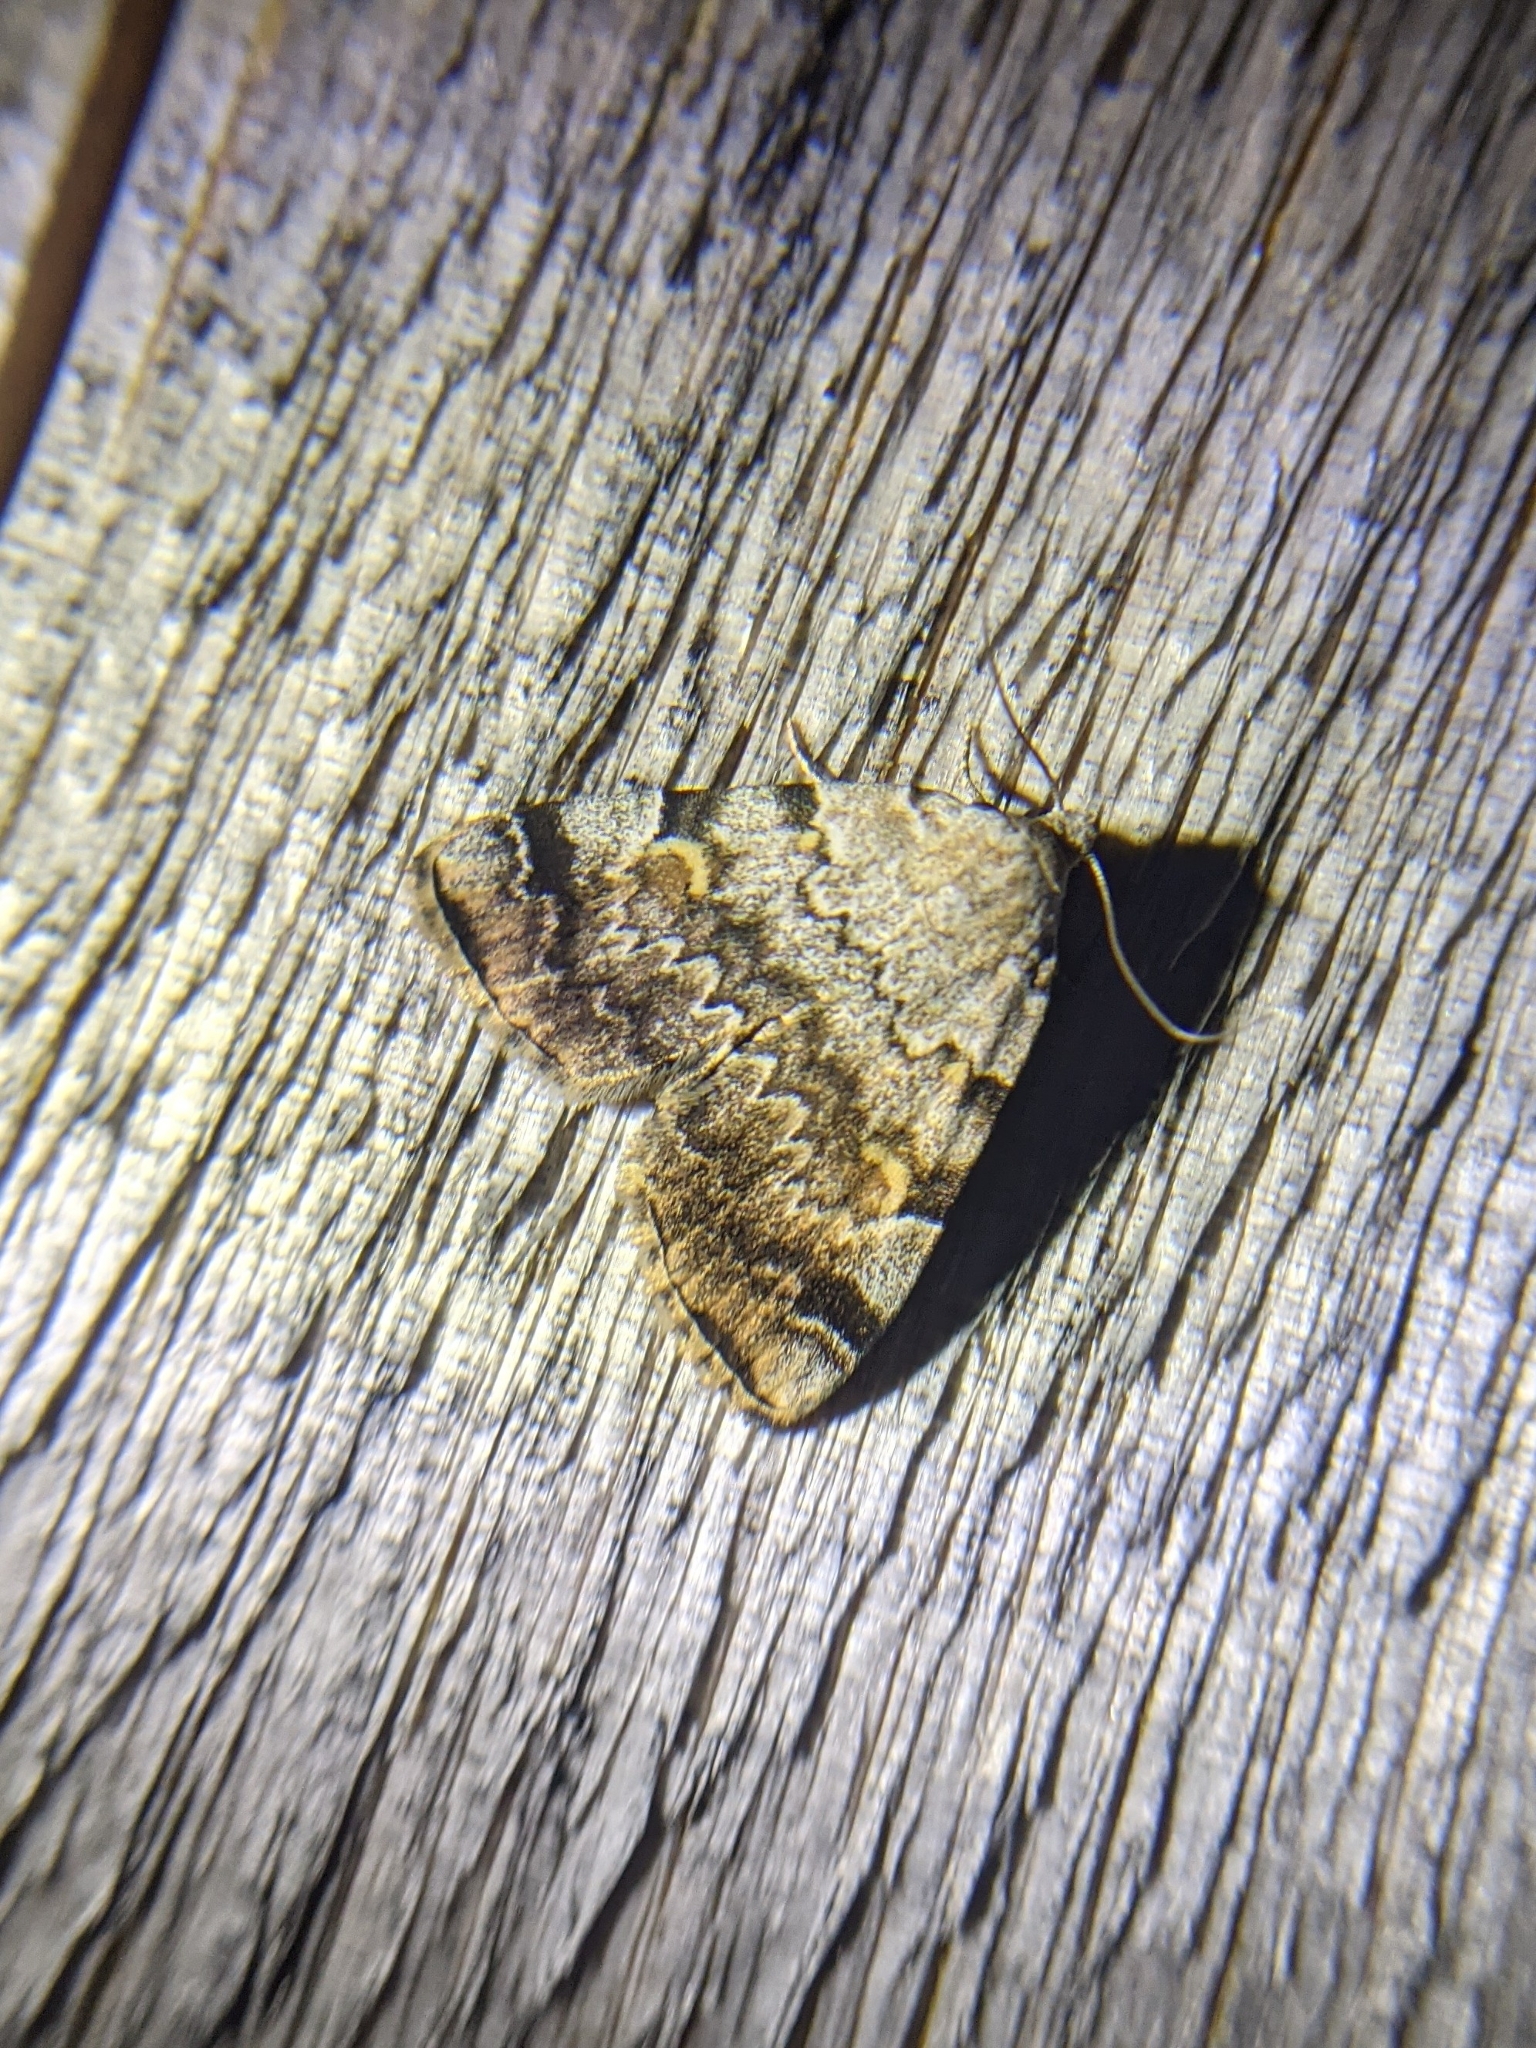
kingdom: Animalia
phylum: Arthropoda
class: Insecta
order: Lepidoptera
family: Erebidae
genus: Idia
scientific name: Idia americalis
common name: American idia moth
